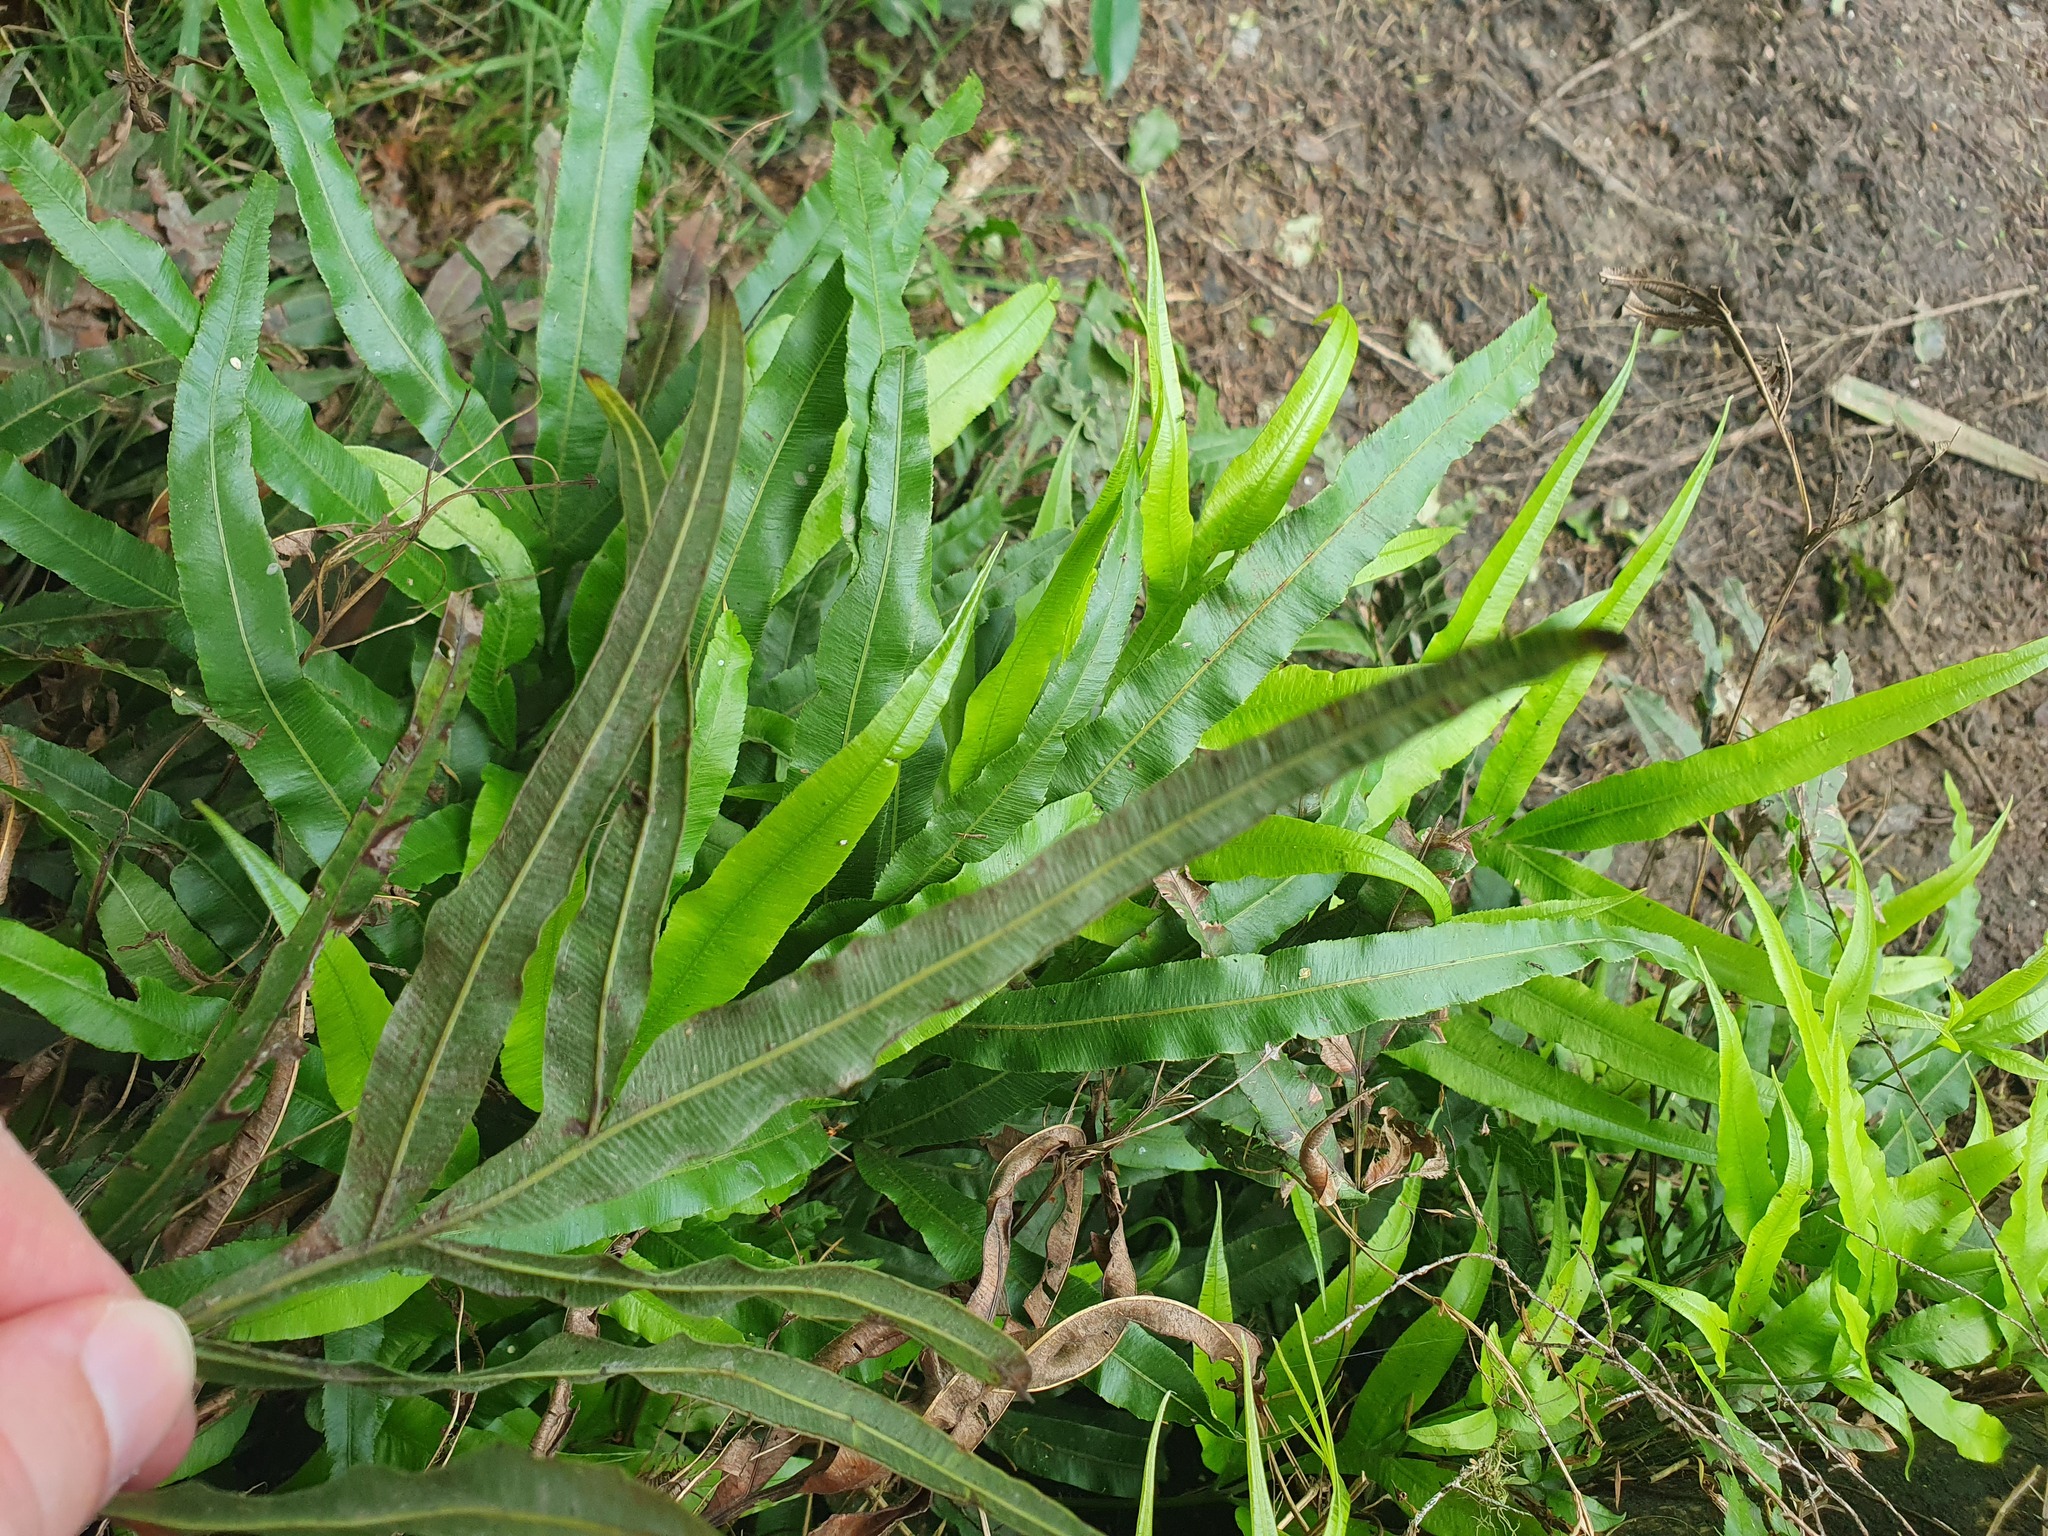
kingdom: Plantae
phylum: Tracheophyta
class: Polypodiopsida
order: Polypodiales
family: Pteridaceae
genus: Pteris
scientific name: Pteris cretica
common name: Ribbon fern
